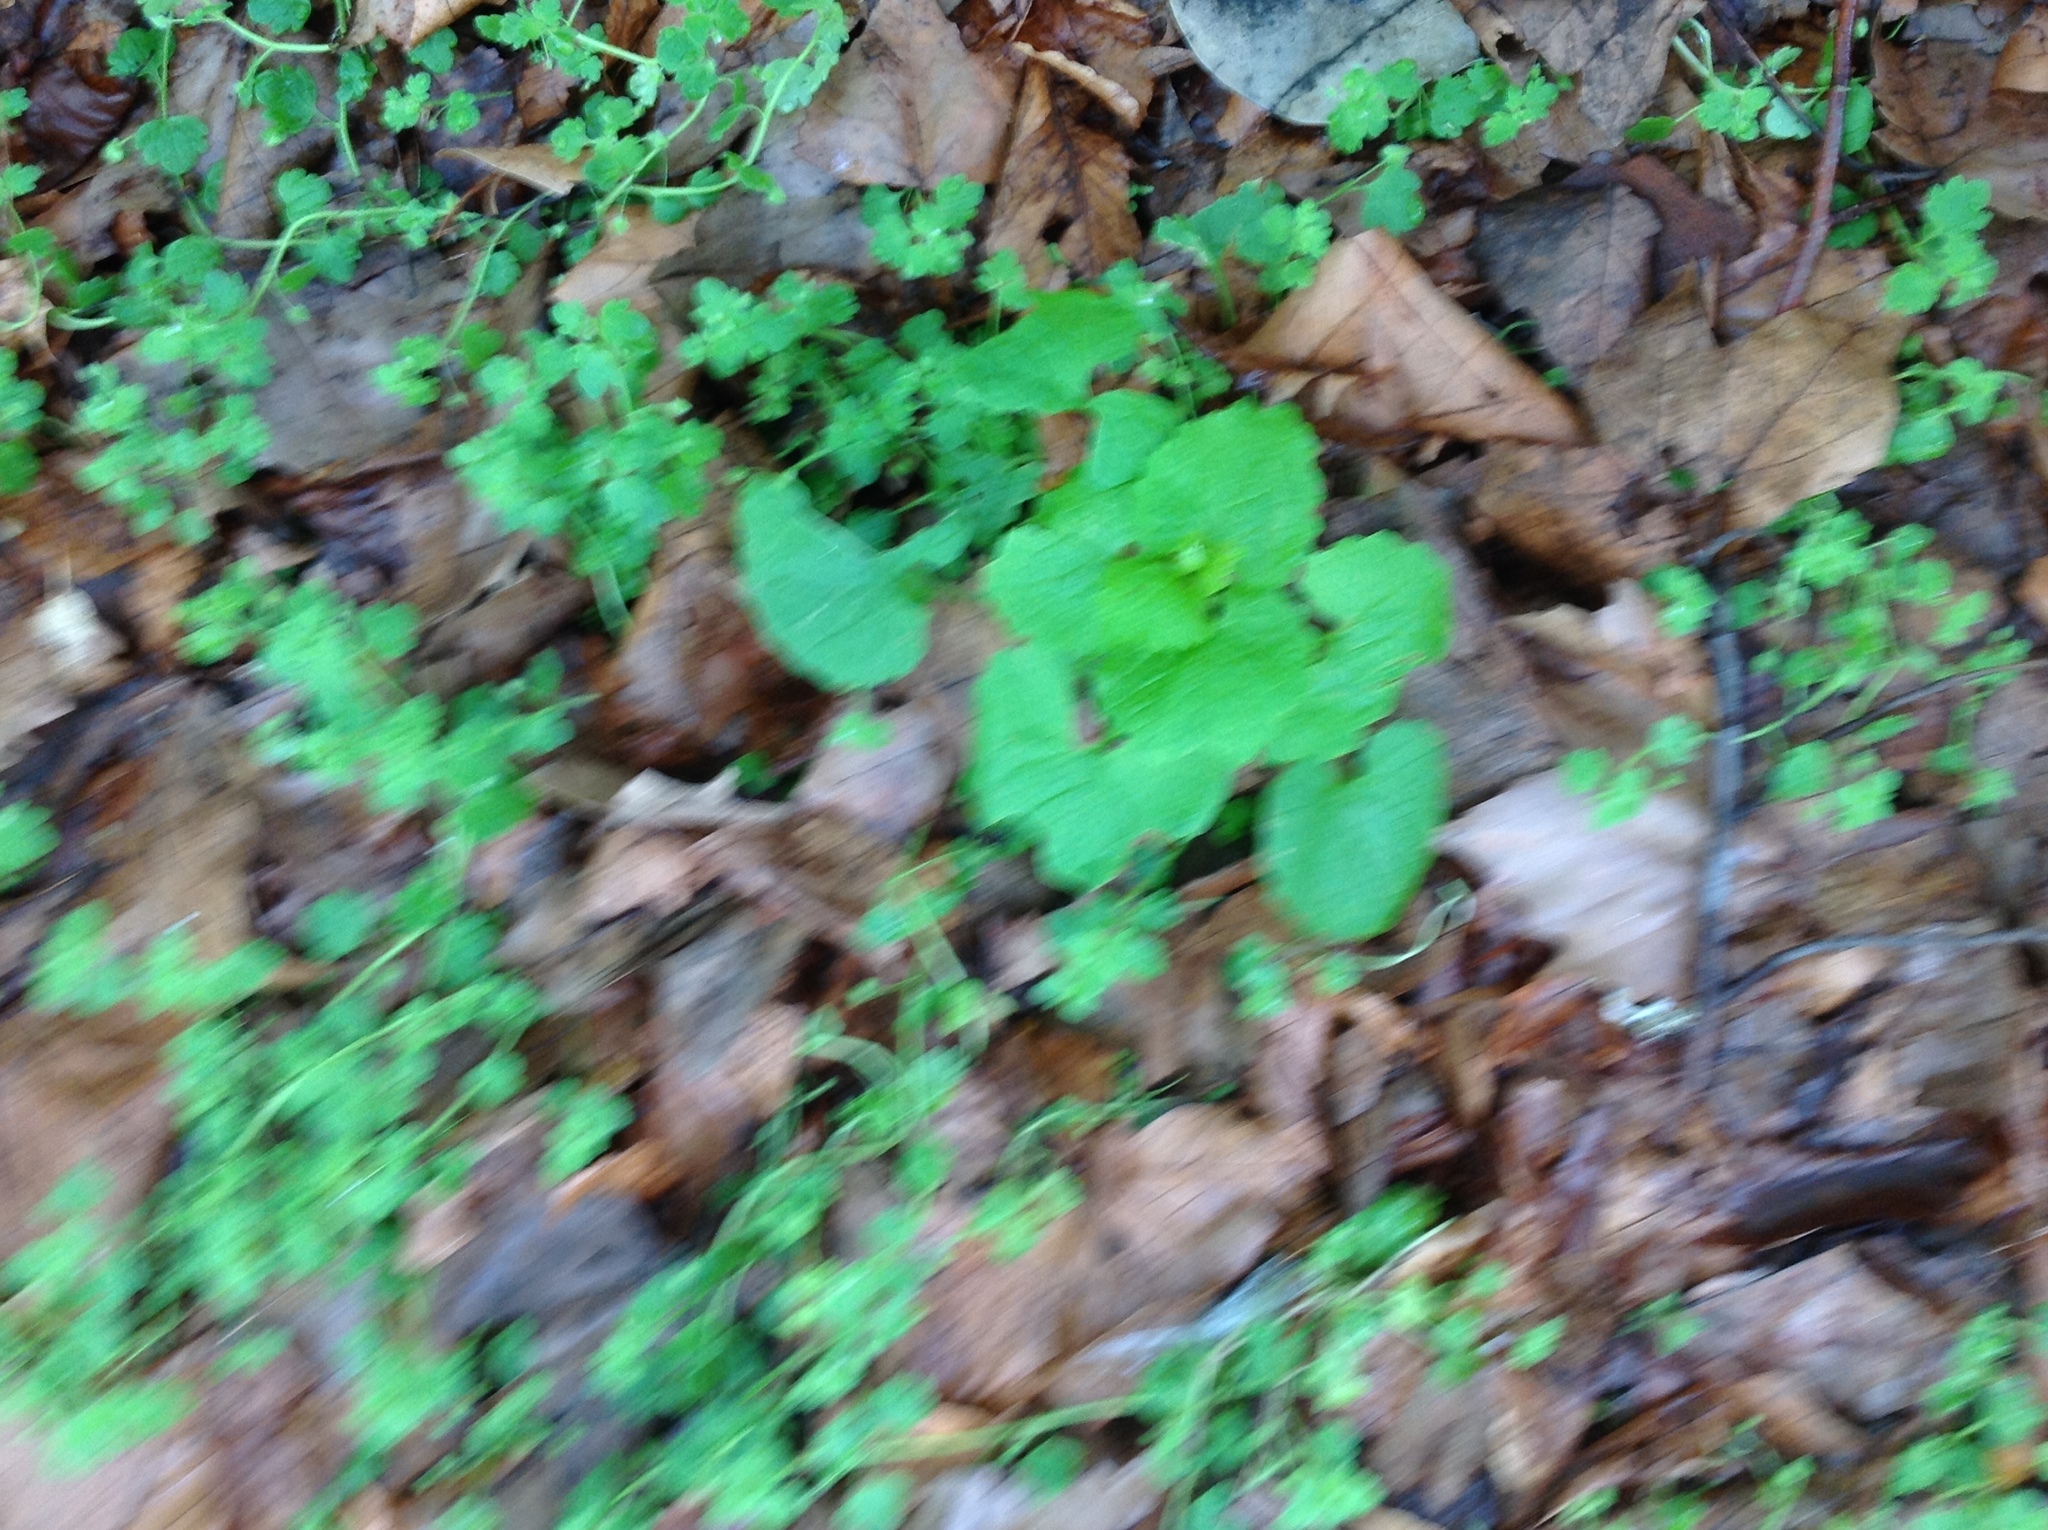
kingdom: Plantae
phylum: Tracheophyta
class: Magnoliopsida
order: Brassicales
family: Brassicaceae
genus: Alliaria
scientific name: Alliaria petiolata
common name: Garlic mustard
